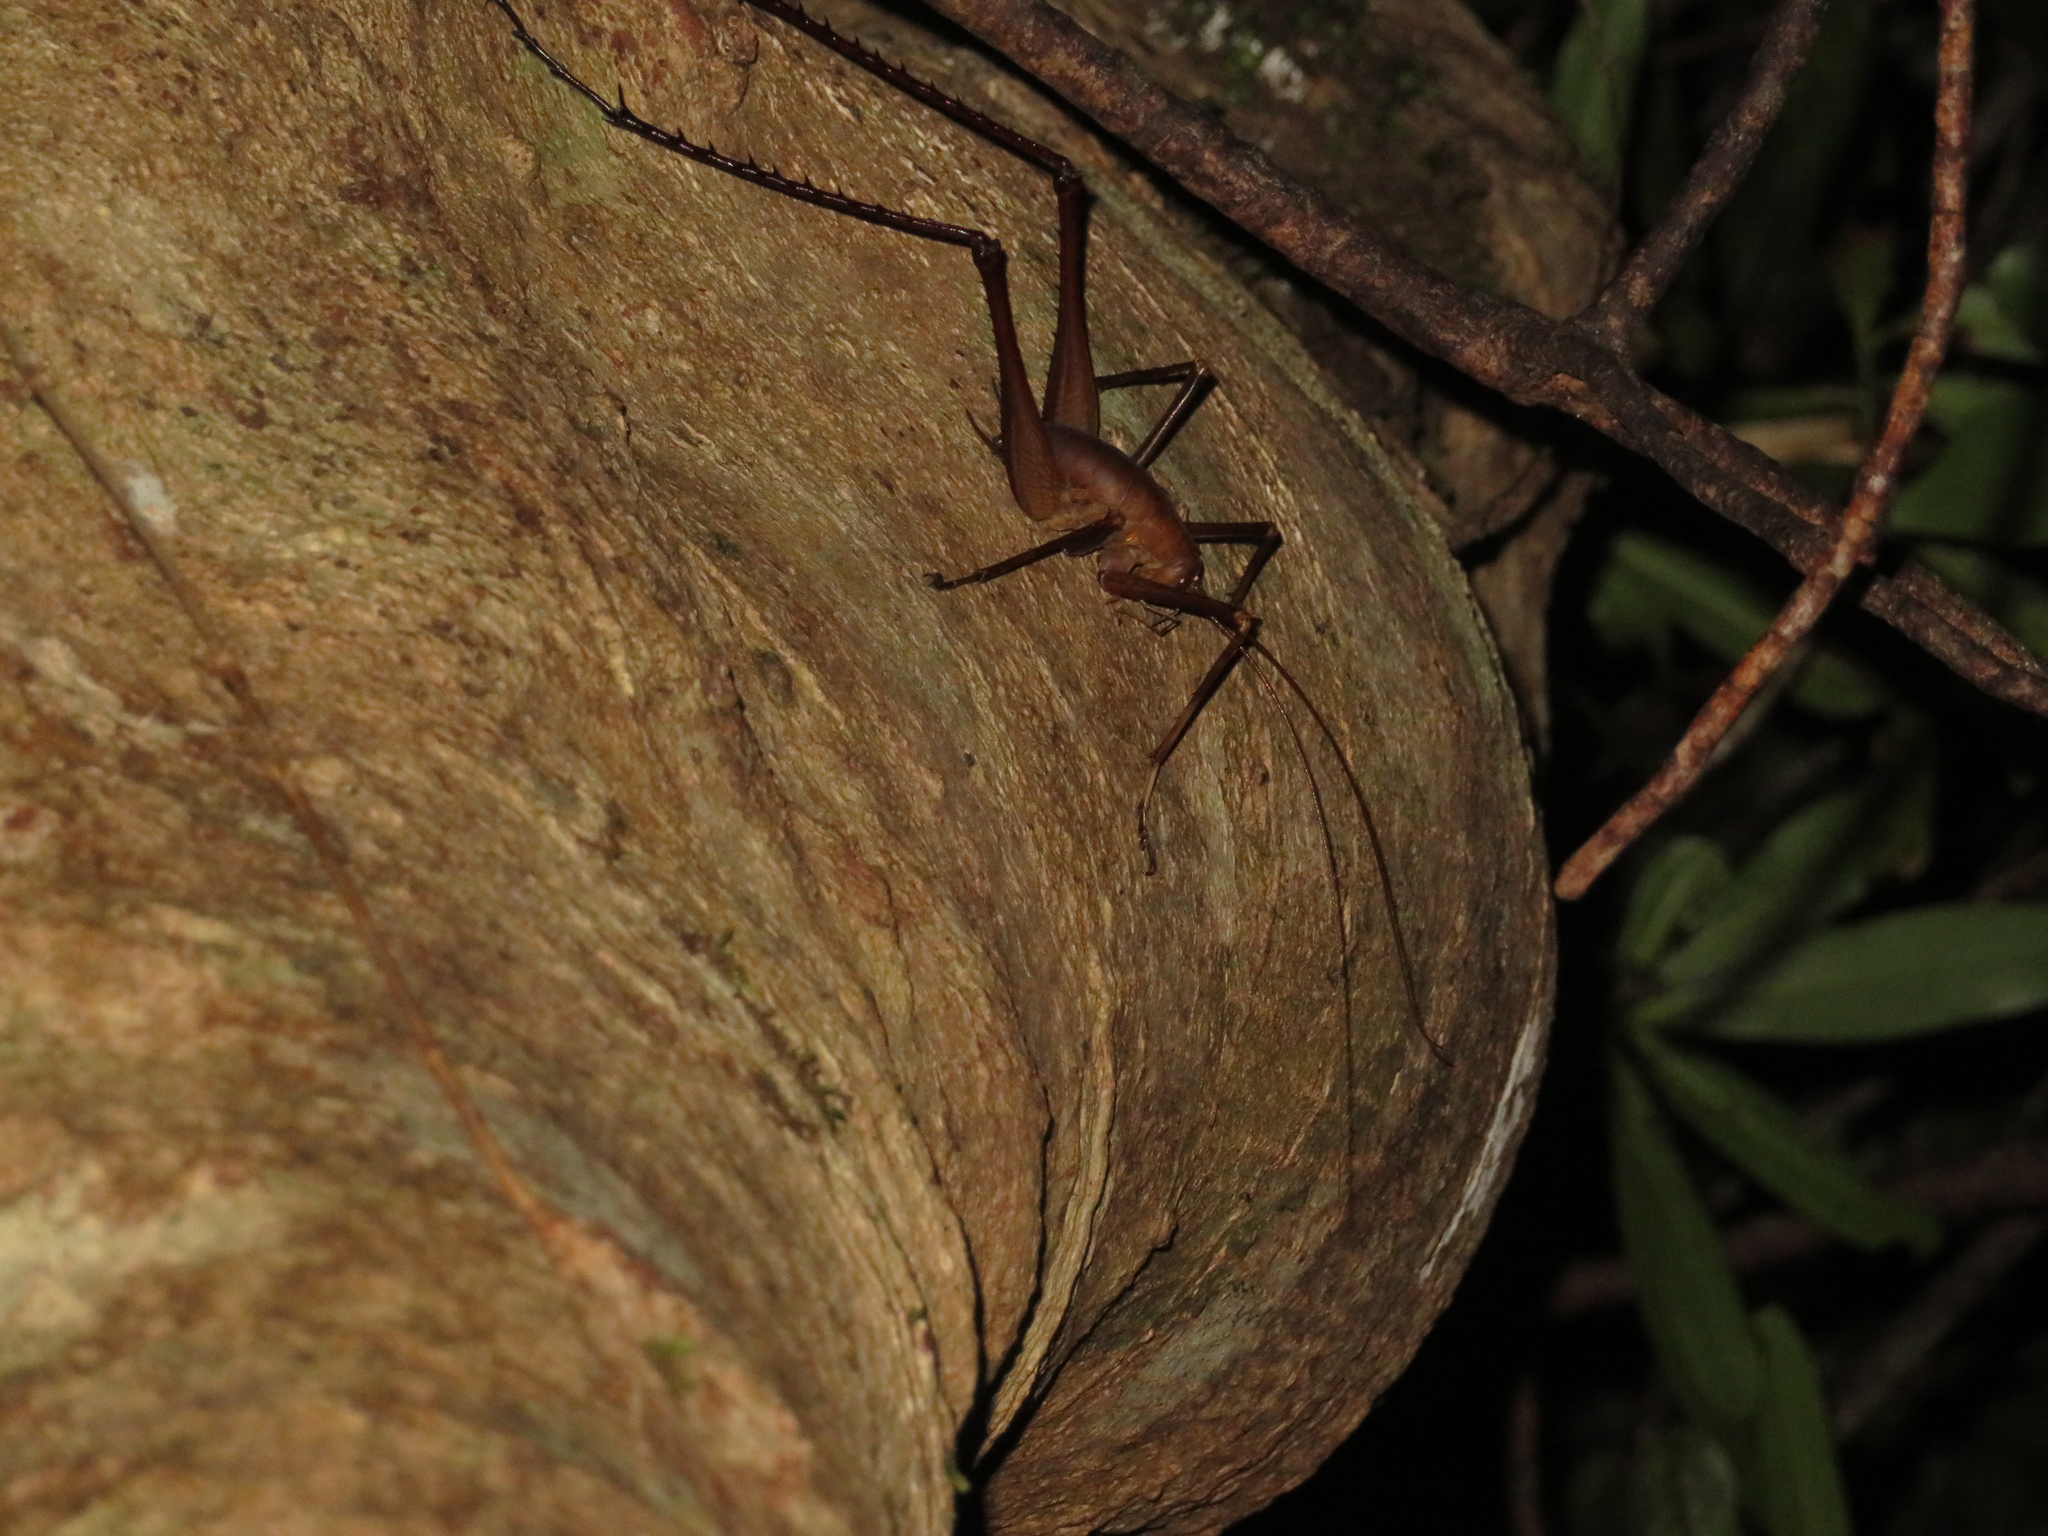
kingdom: Animalia
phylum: Arthropoda
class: Insecta
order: Orthoptera
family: Rhaphidophoridae
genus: Pachyrhamma
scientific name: Pachyrhamma longipes
